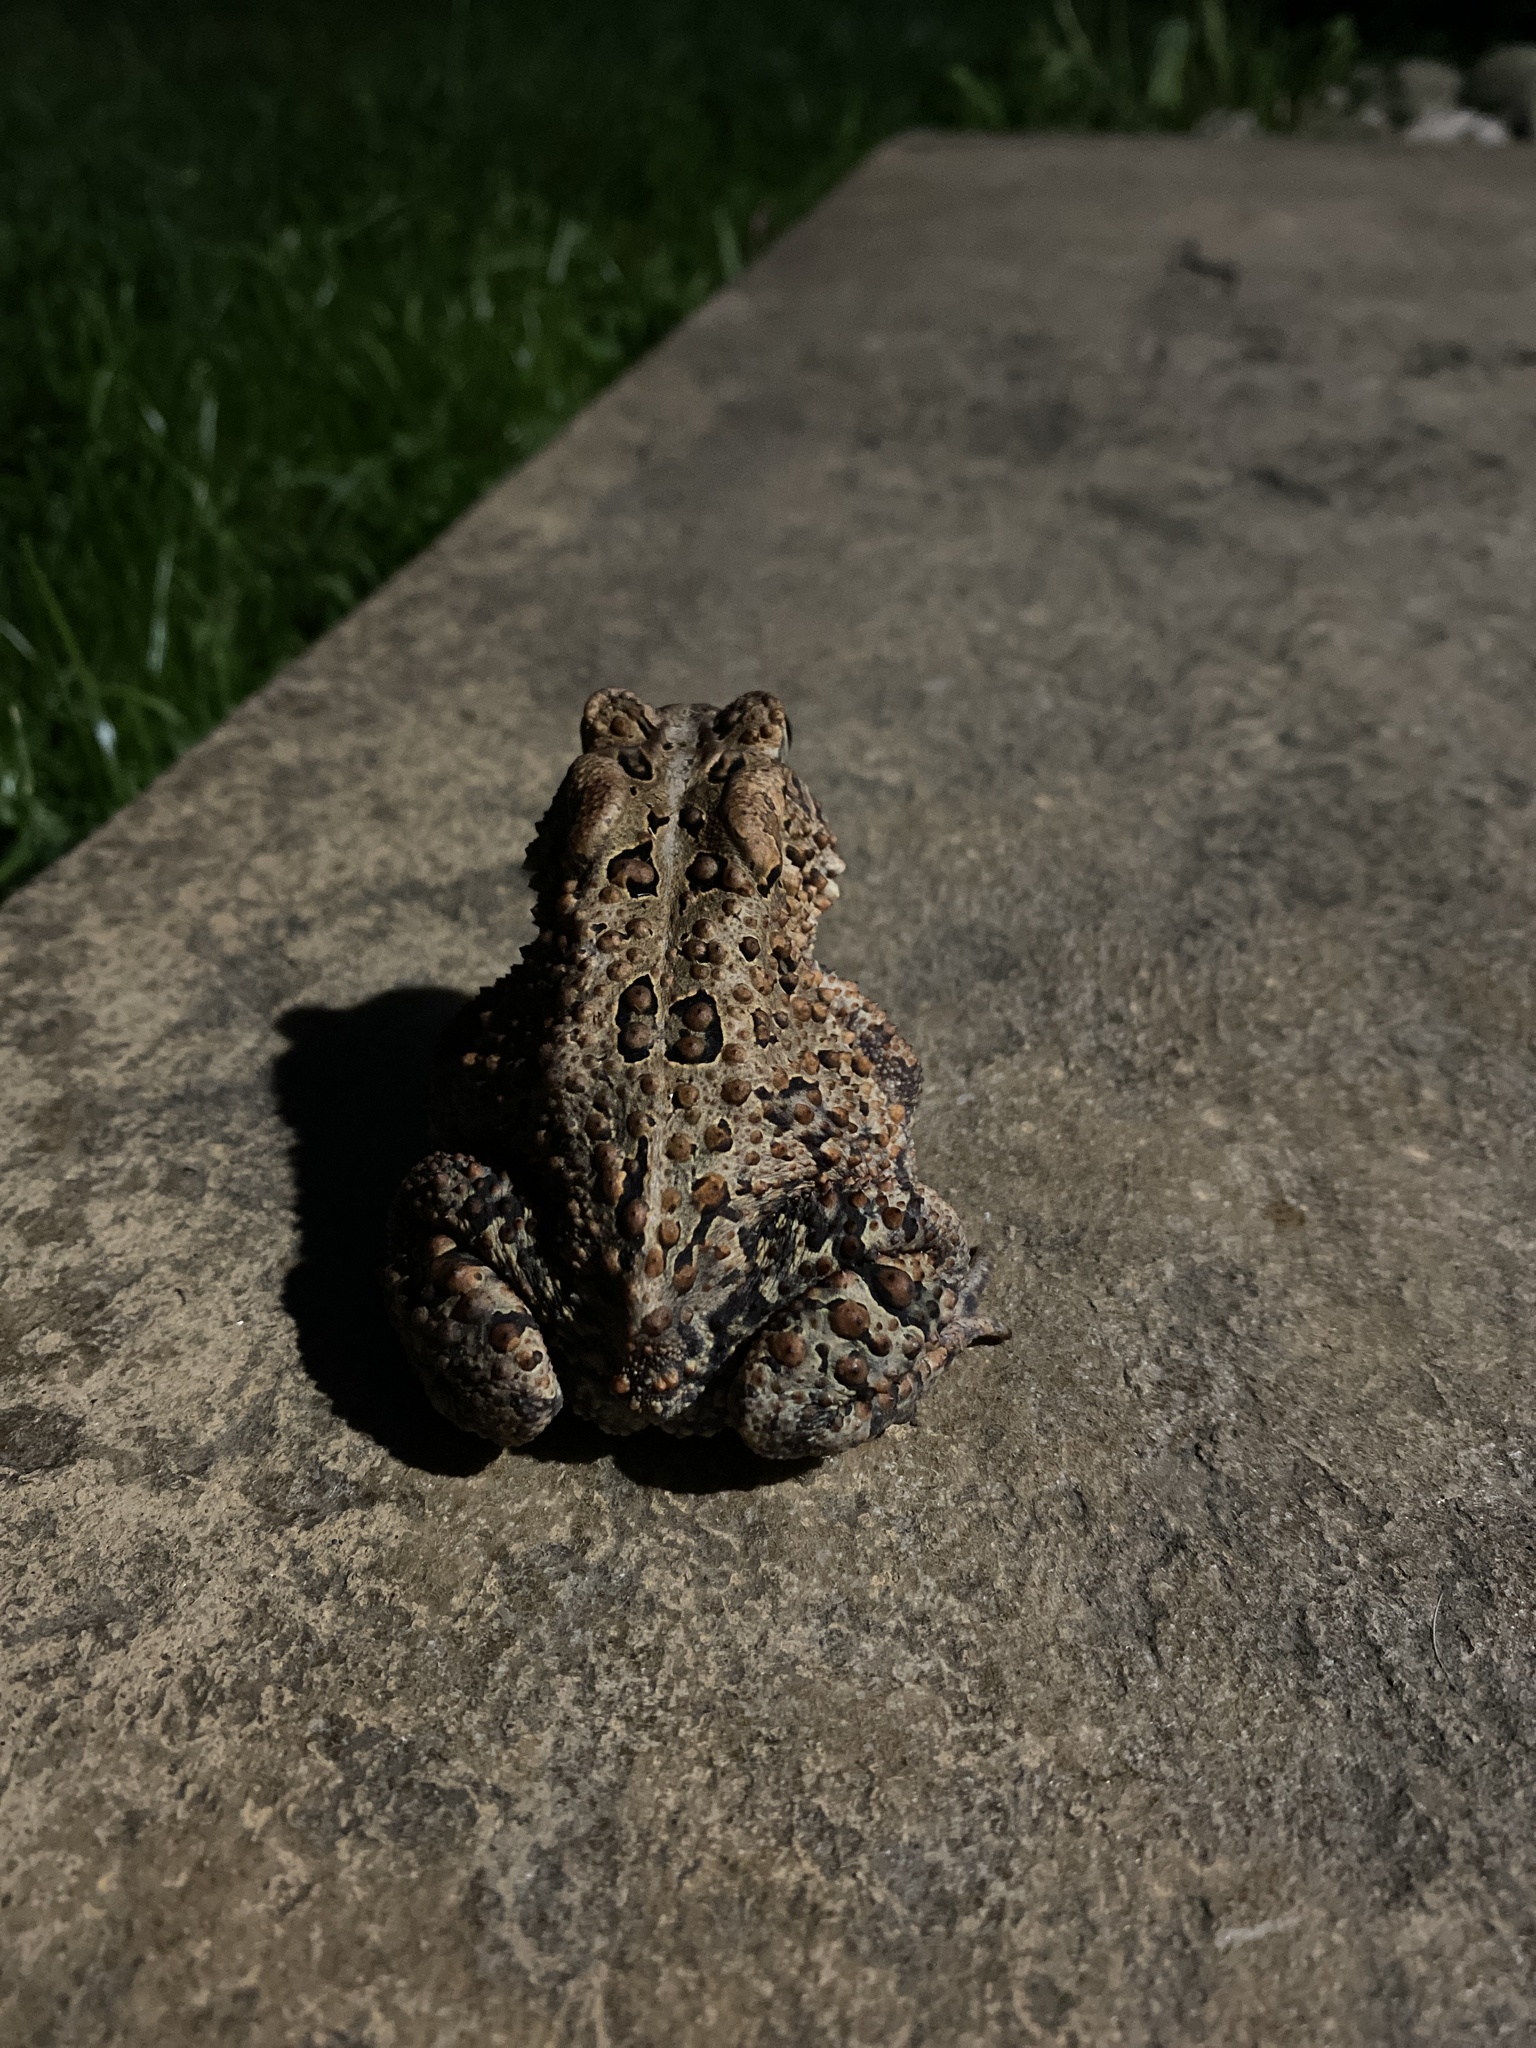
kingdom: Animalia
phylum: Chordata
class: Amphibia
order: Anura
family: Bufonidae
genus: Anaxyrus
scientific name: Anaxyrus americanus
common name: American toad
